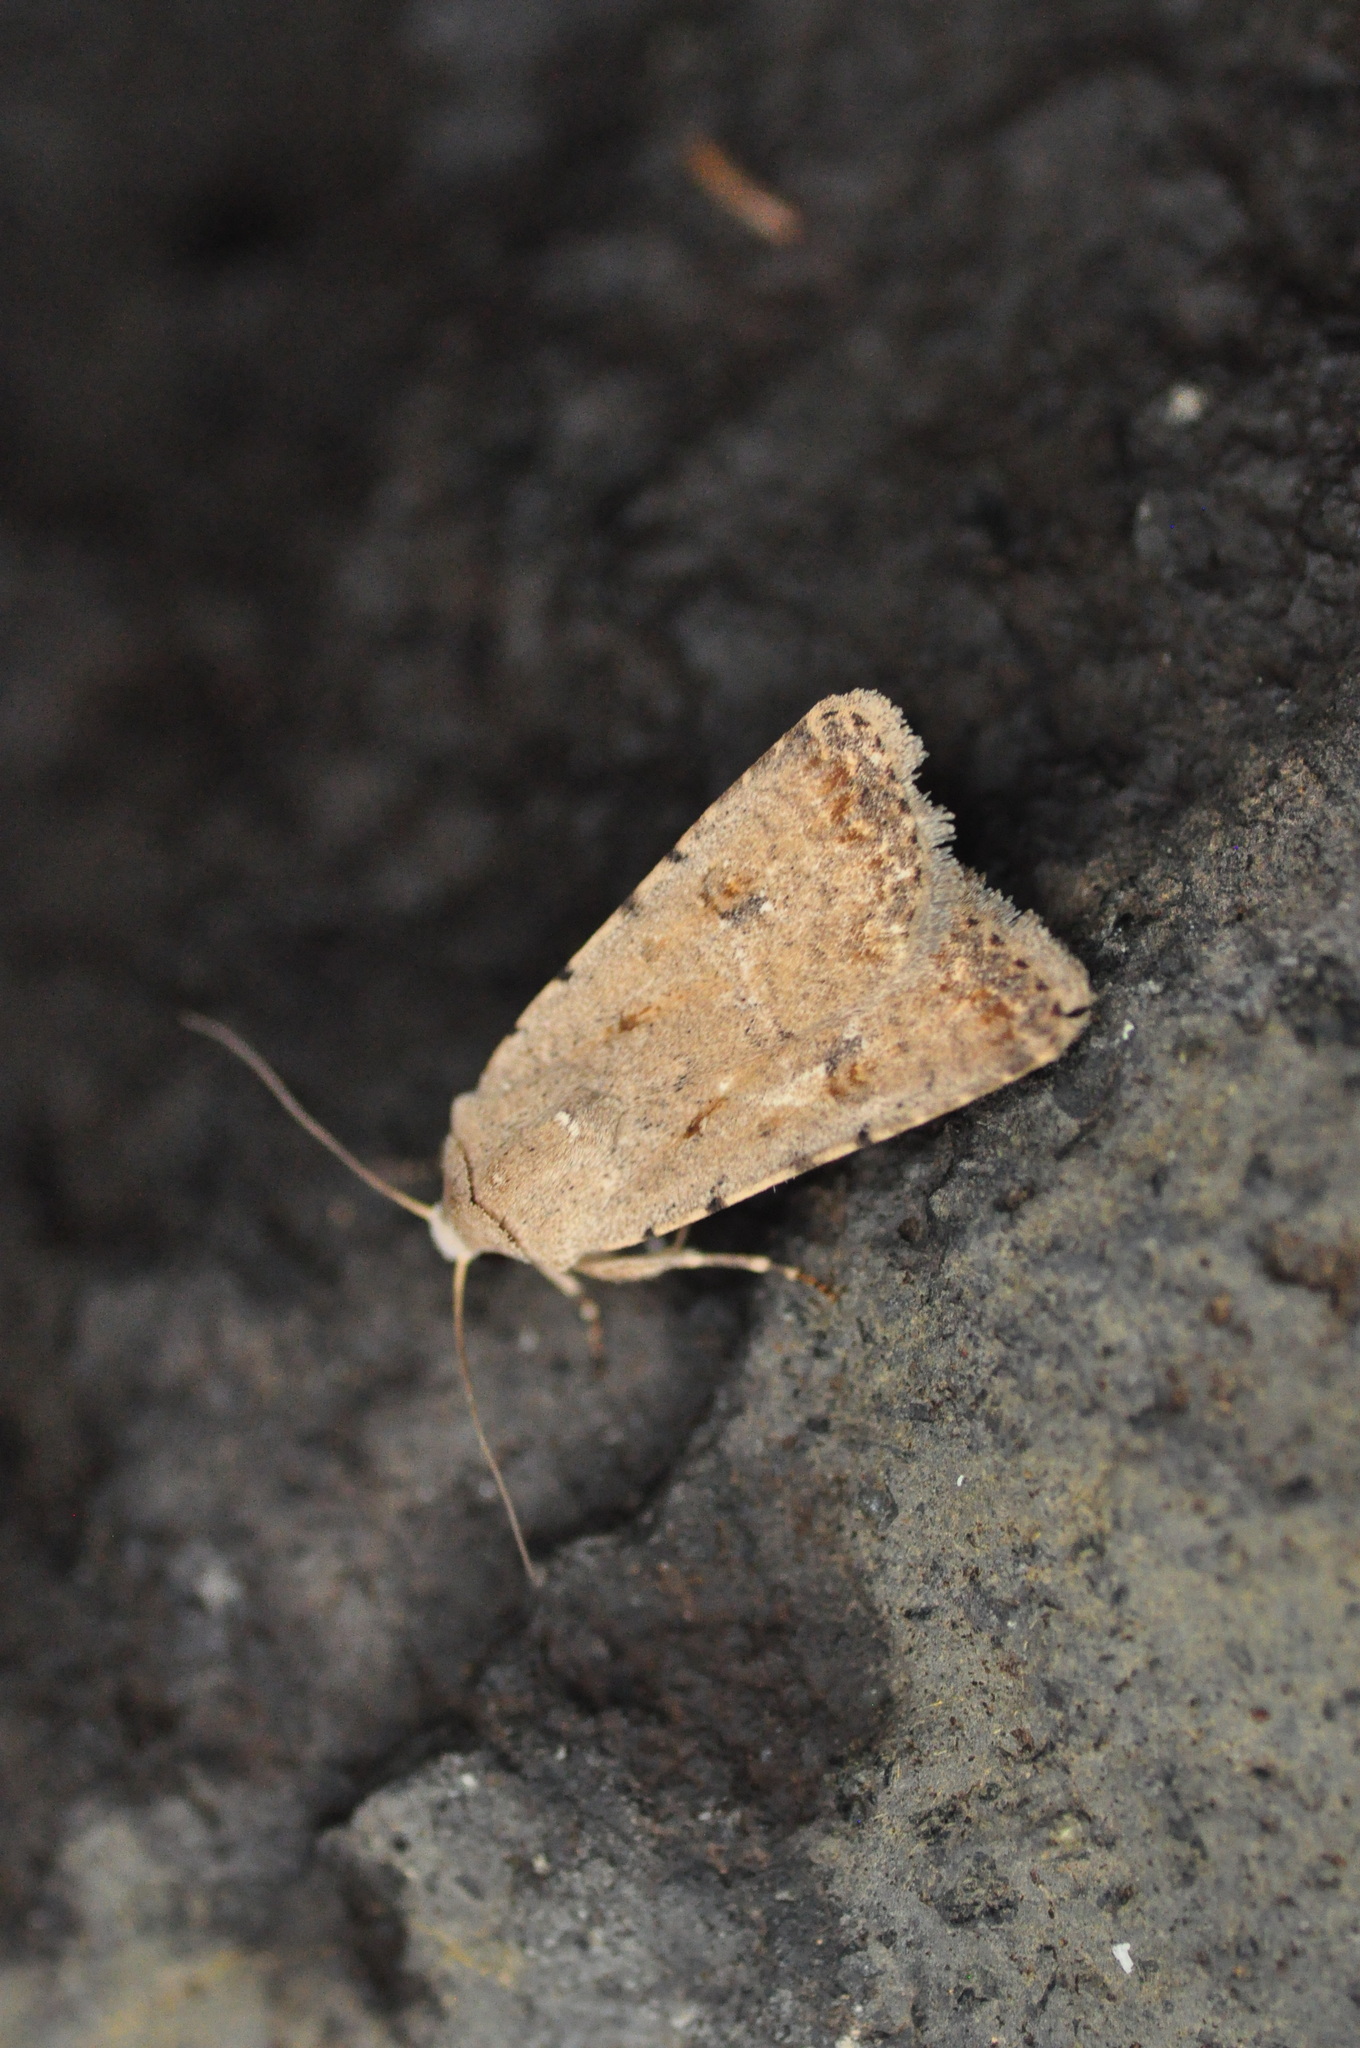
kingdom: Animalia
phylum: Arthropoda
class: Insecta
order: Lepidoptera
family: Noctuidae
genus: Caradrina
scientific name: Caradrina clavipalpis
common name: Pale mottled willow
